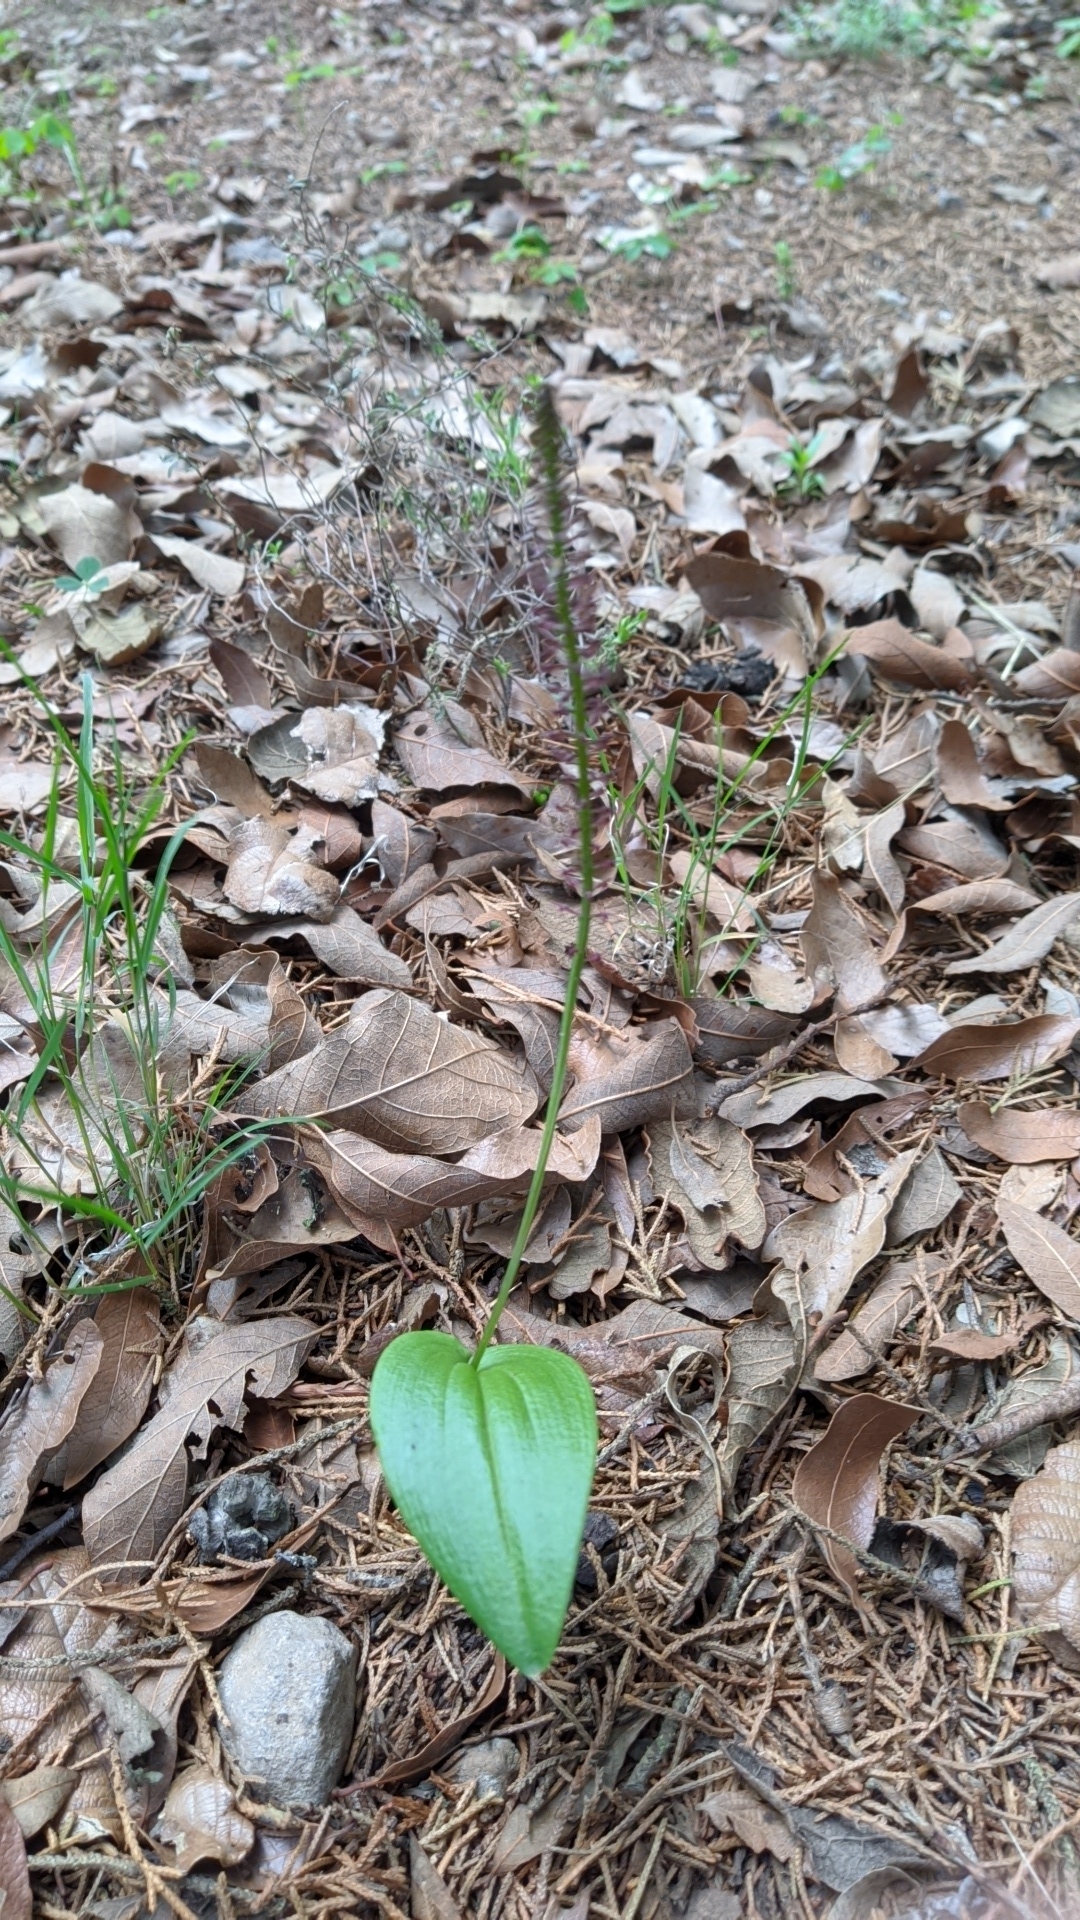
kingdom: Plantae
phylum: Tracheophyta
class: Liliopsida
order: Asparagales
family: Orchidaceae
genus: Tamayorkis
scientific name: Tamayorkis ehrenbergii
